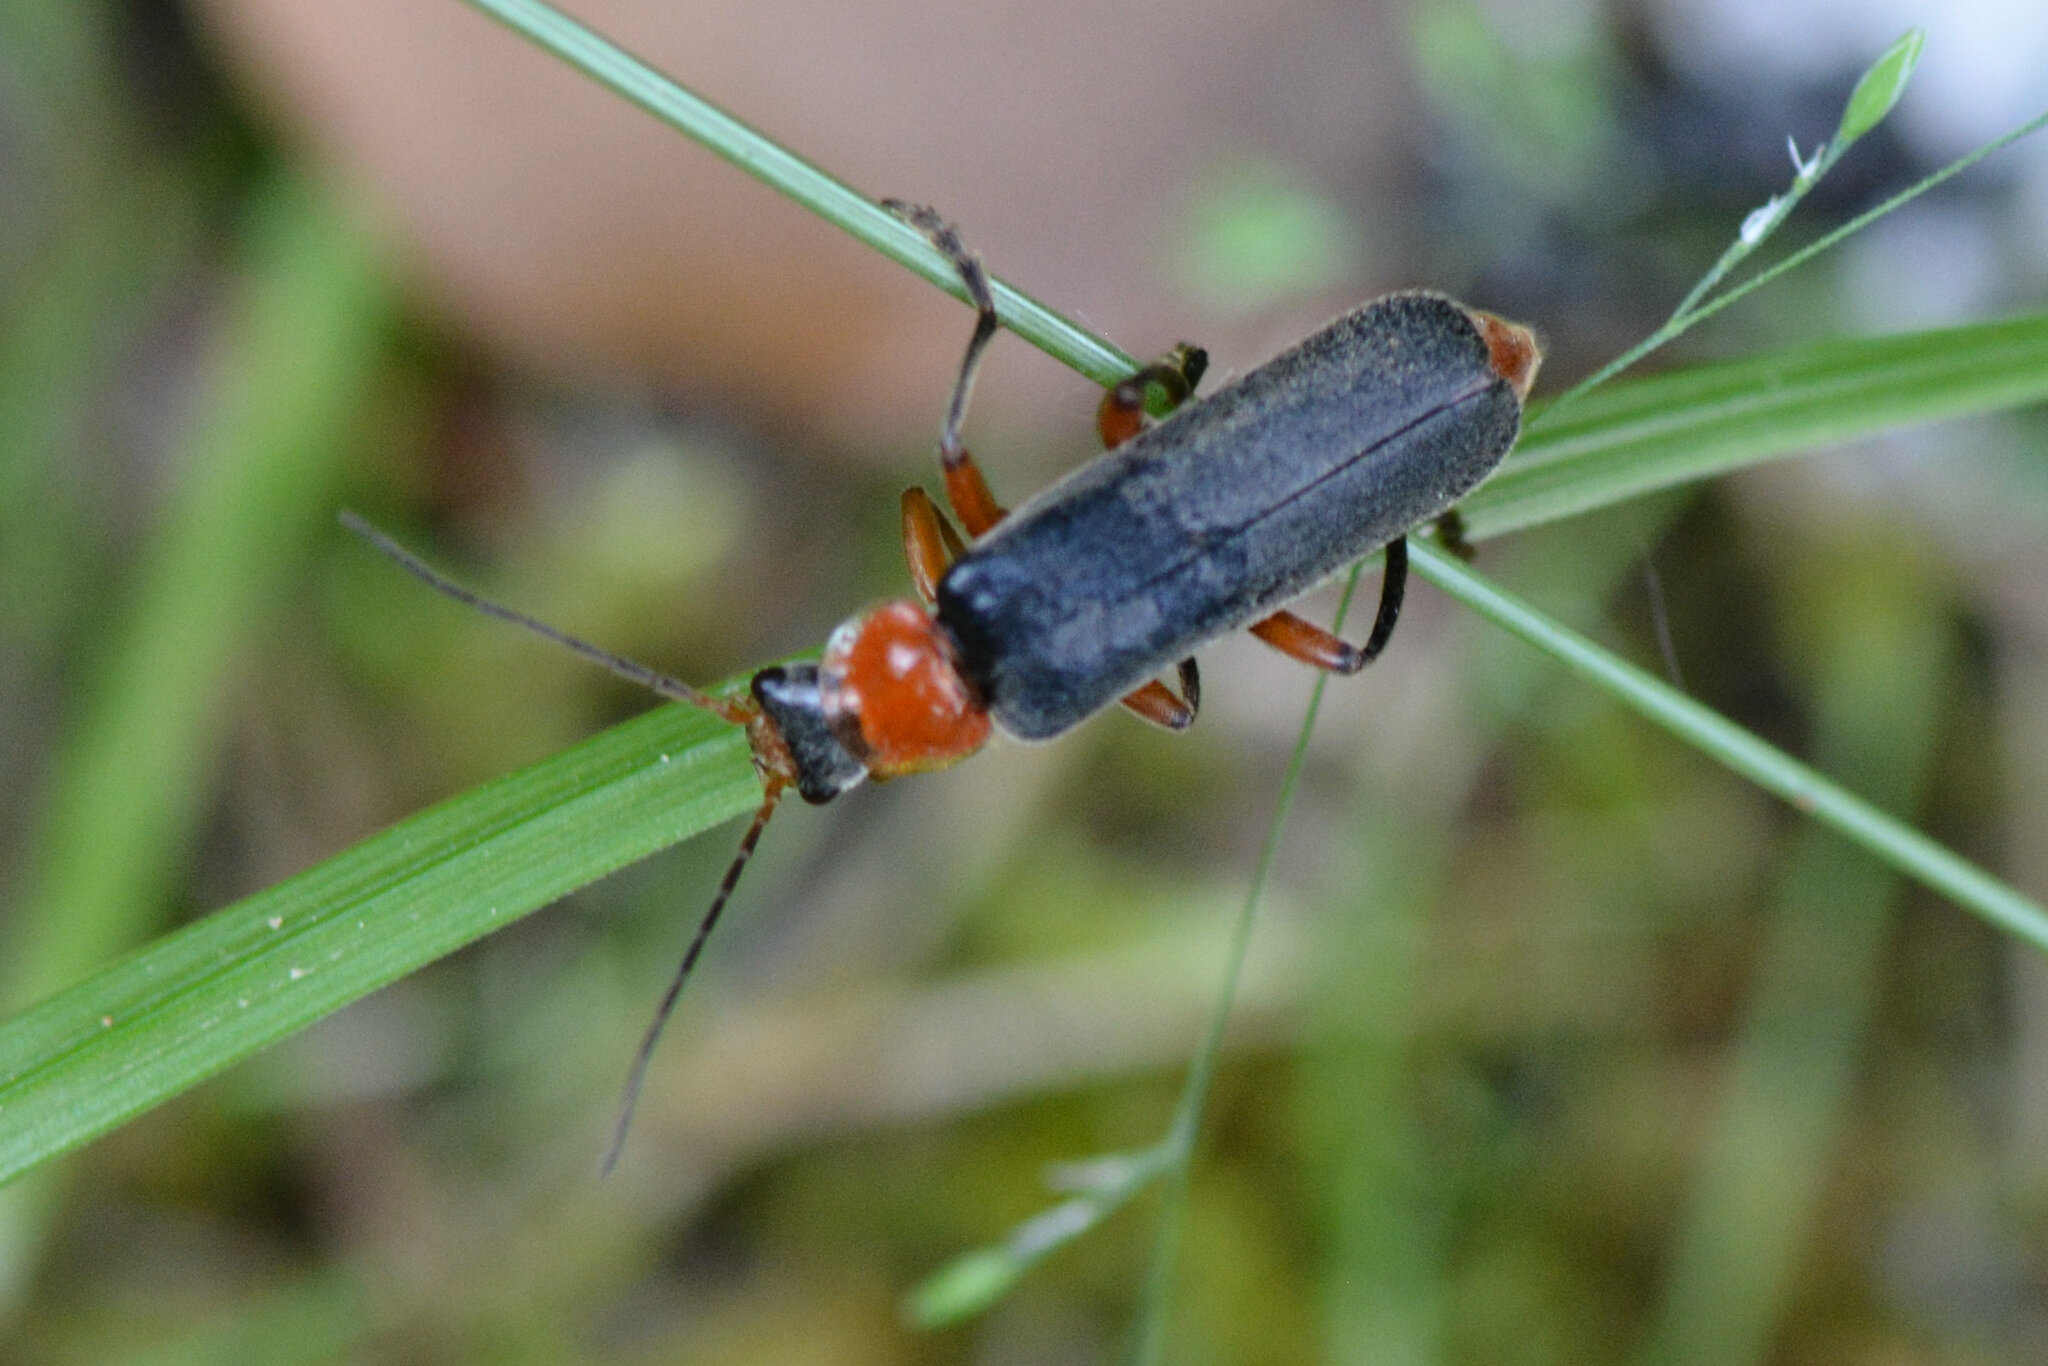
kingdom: Animalia
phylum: Arthropoda
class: Insecta
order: Coleoptera
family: Cantharidae
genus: Cantharis
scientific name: Cantharis pellucida
